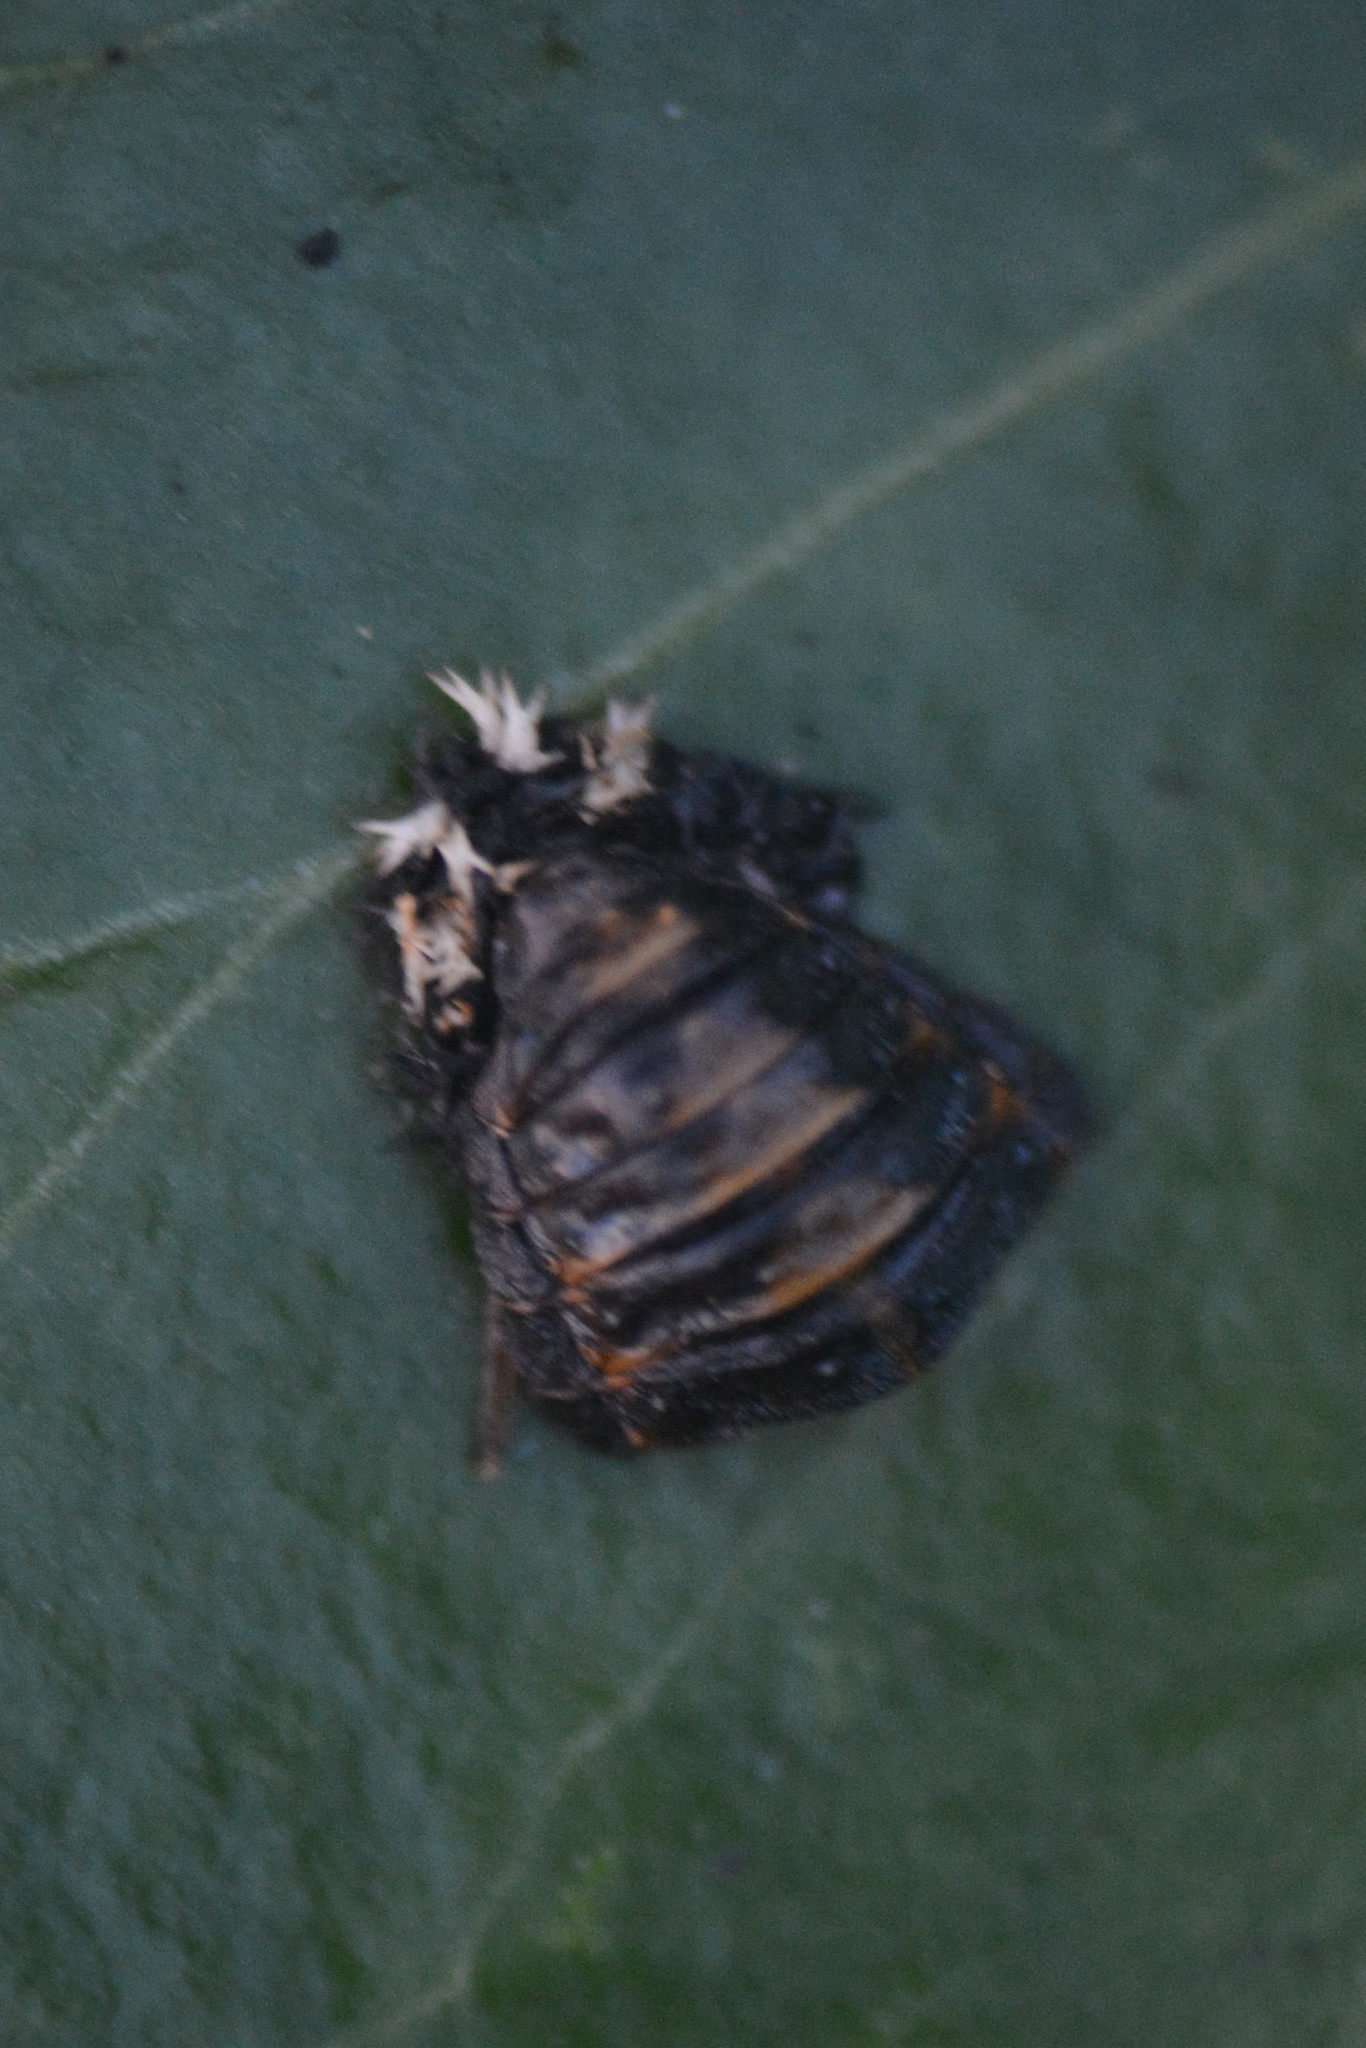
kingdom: Animalia
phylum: Arthropoda
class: Insecta
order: Coleoptera
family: Coccinellidae
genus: Harmonia
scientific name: Harmonia axyridis
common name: Harlequin ladybird
